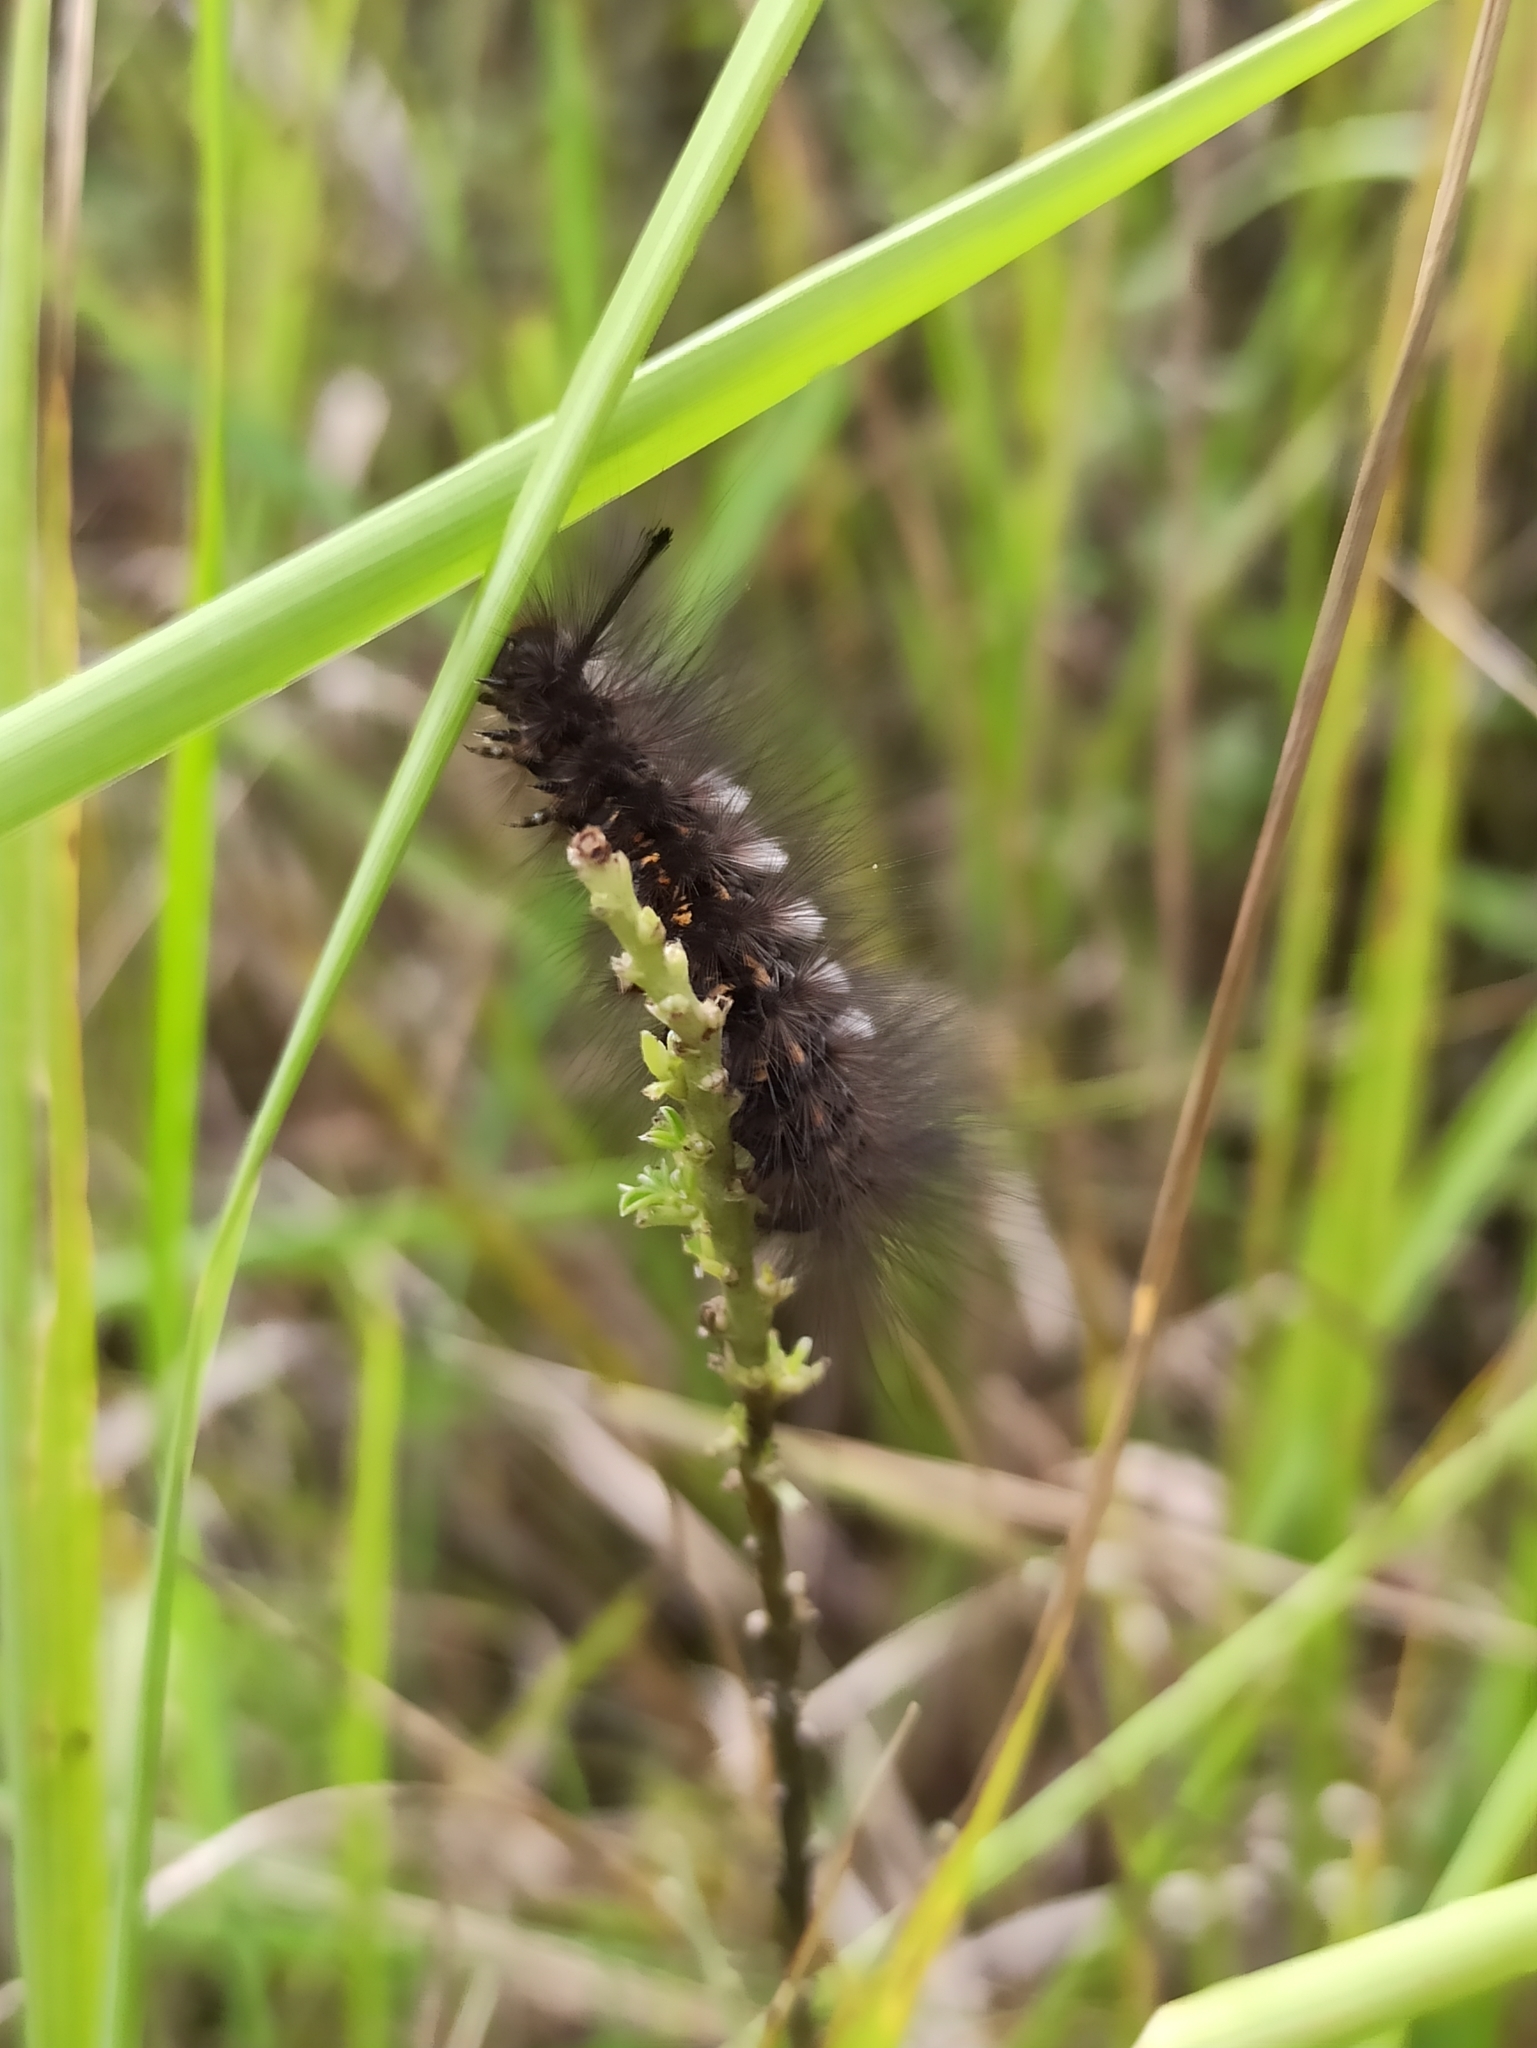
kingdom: Animalia
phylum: Arthropoda
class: Insecta
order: Lepidoptera
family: Erebidae
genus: Gynaephora
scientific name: Gynaephora selenitica
